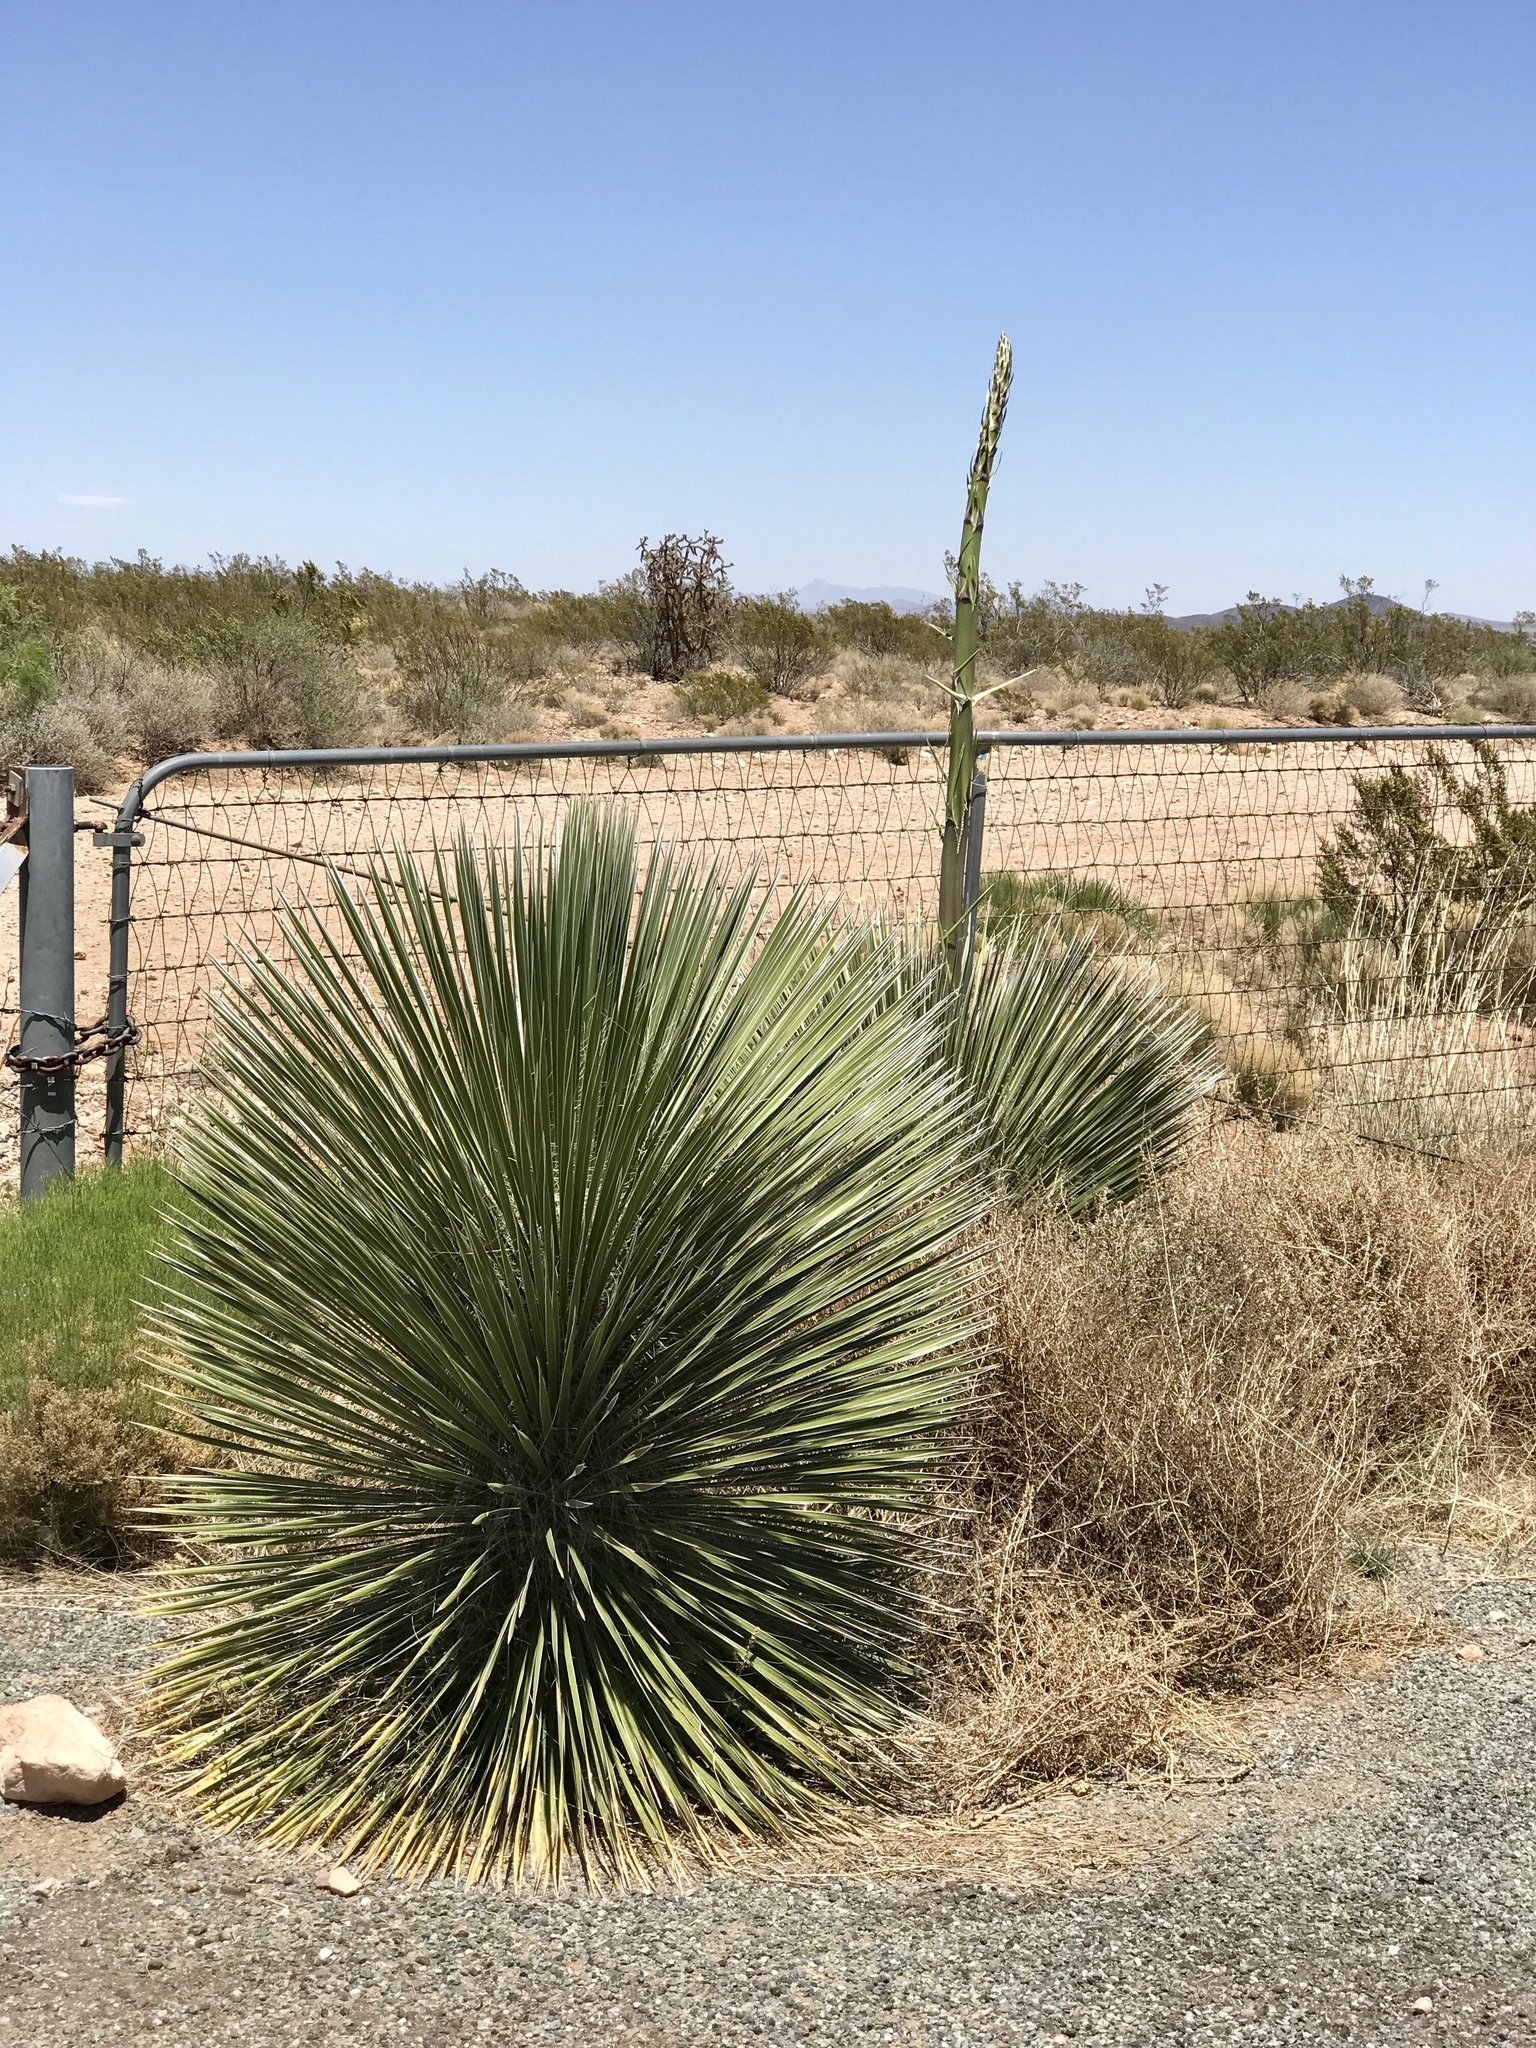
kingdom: Plantae
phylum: Tracheophyta
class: Liliopsida
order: Asparagales
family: Asparagaceae
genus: Yucca
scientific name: Yucca elata
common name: Palmella
